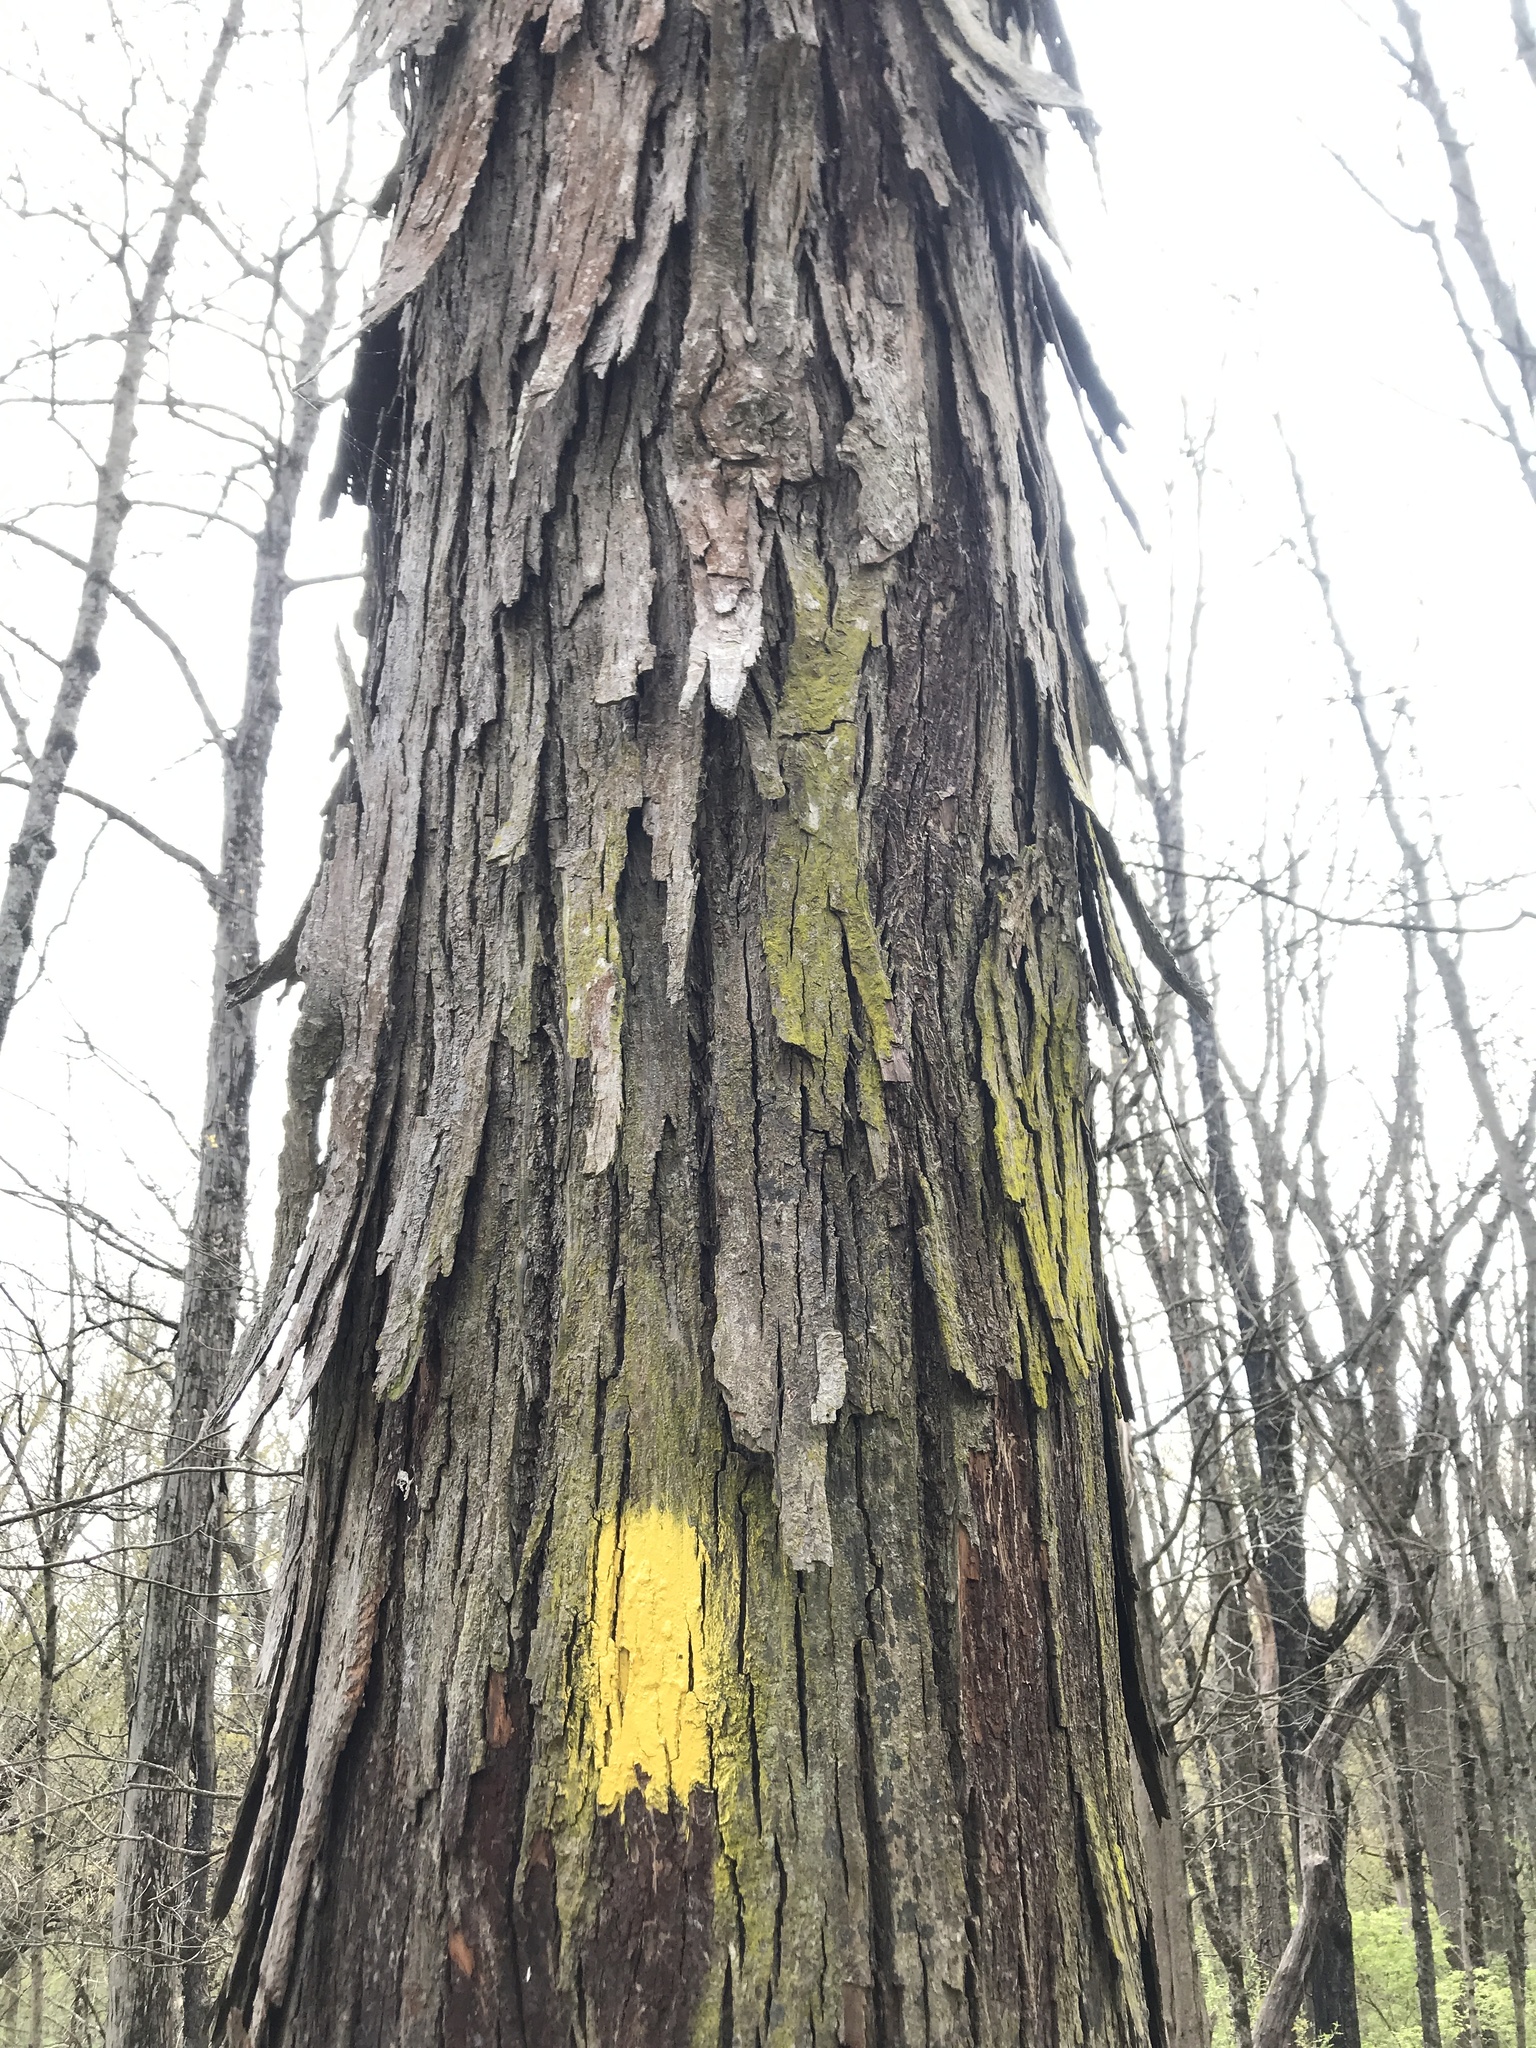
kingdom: Plantae
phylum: Tracheophyta
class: Magnoliopsida
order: Fagales
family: Juglandaceae
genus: Carya
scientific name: Carya ovata
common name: Shagbark hickory
